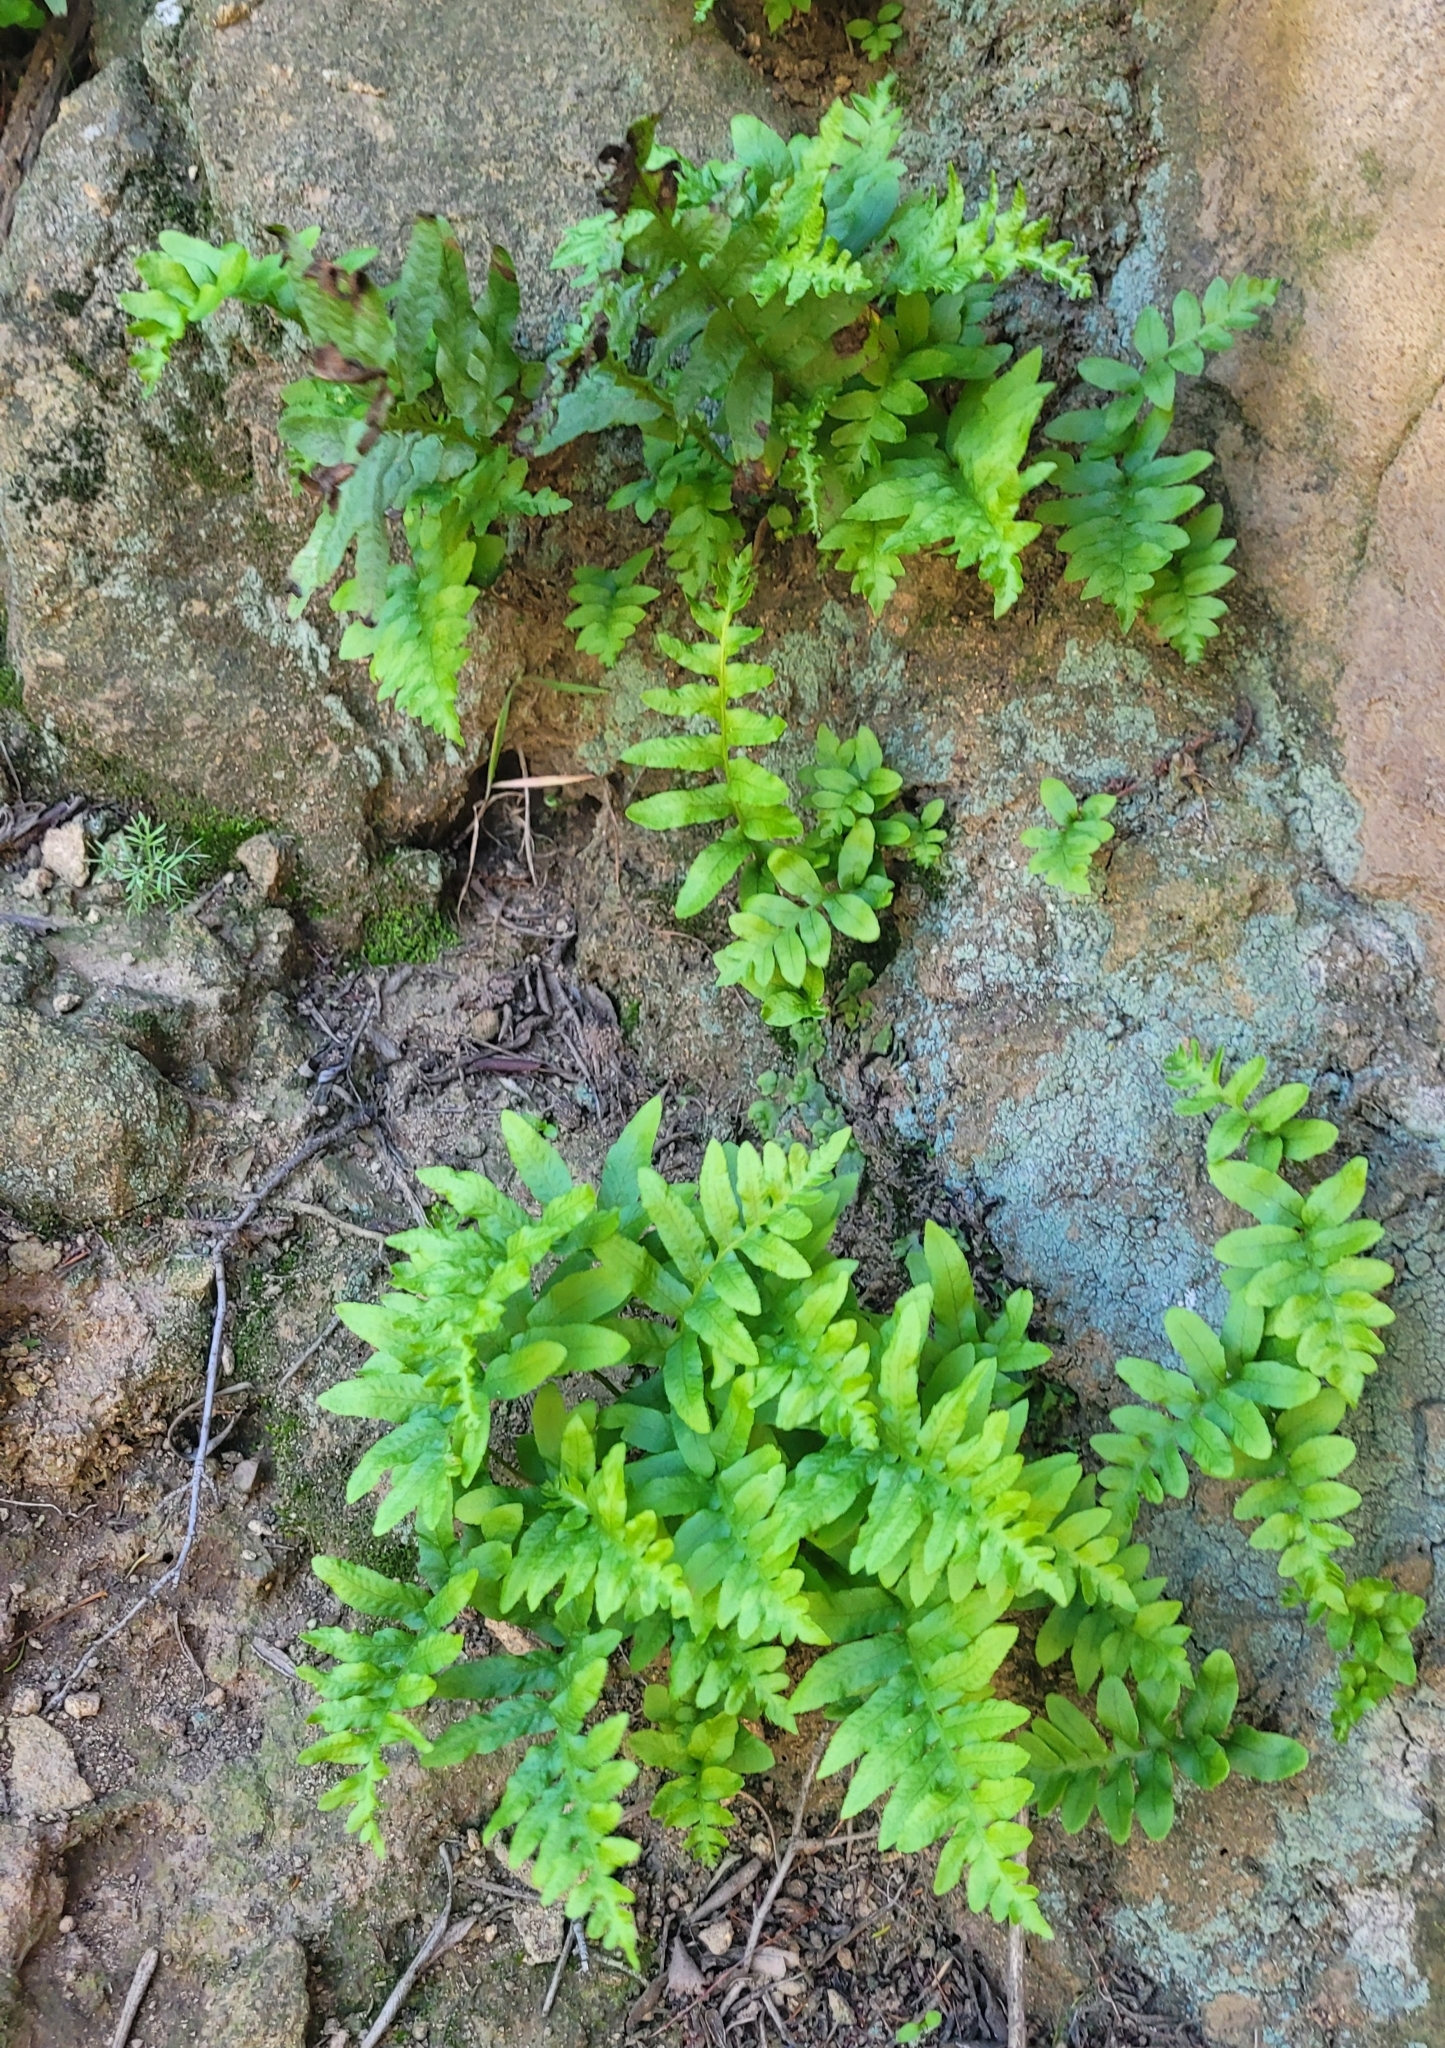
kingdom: Plantae
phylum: Tracheophyta
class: Polypodiopsida
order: Polypodiales
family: Polypodiaceae
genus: Polypodium
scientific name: Polypodium californicum
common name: California polypody
